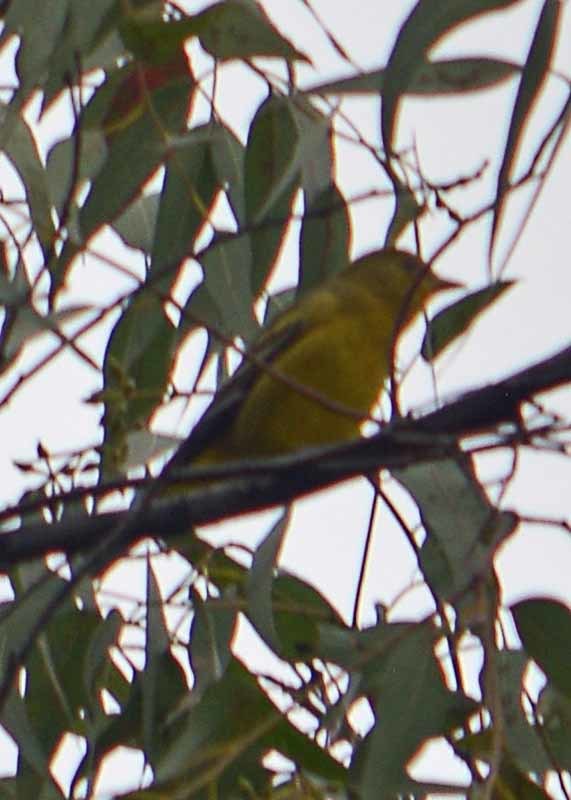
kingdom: Animalia
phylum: Chordata
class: Aves
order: Passeriformes
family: Cardinalidae
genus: Piranga
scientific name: Piranga ludoviciana
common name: Western tanager
